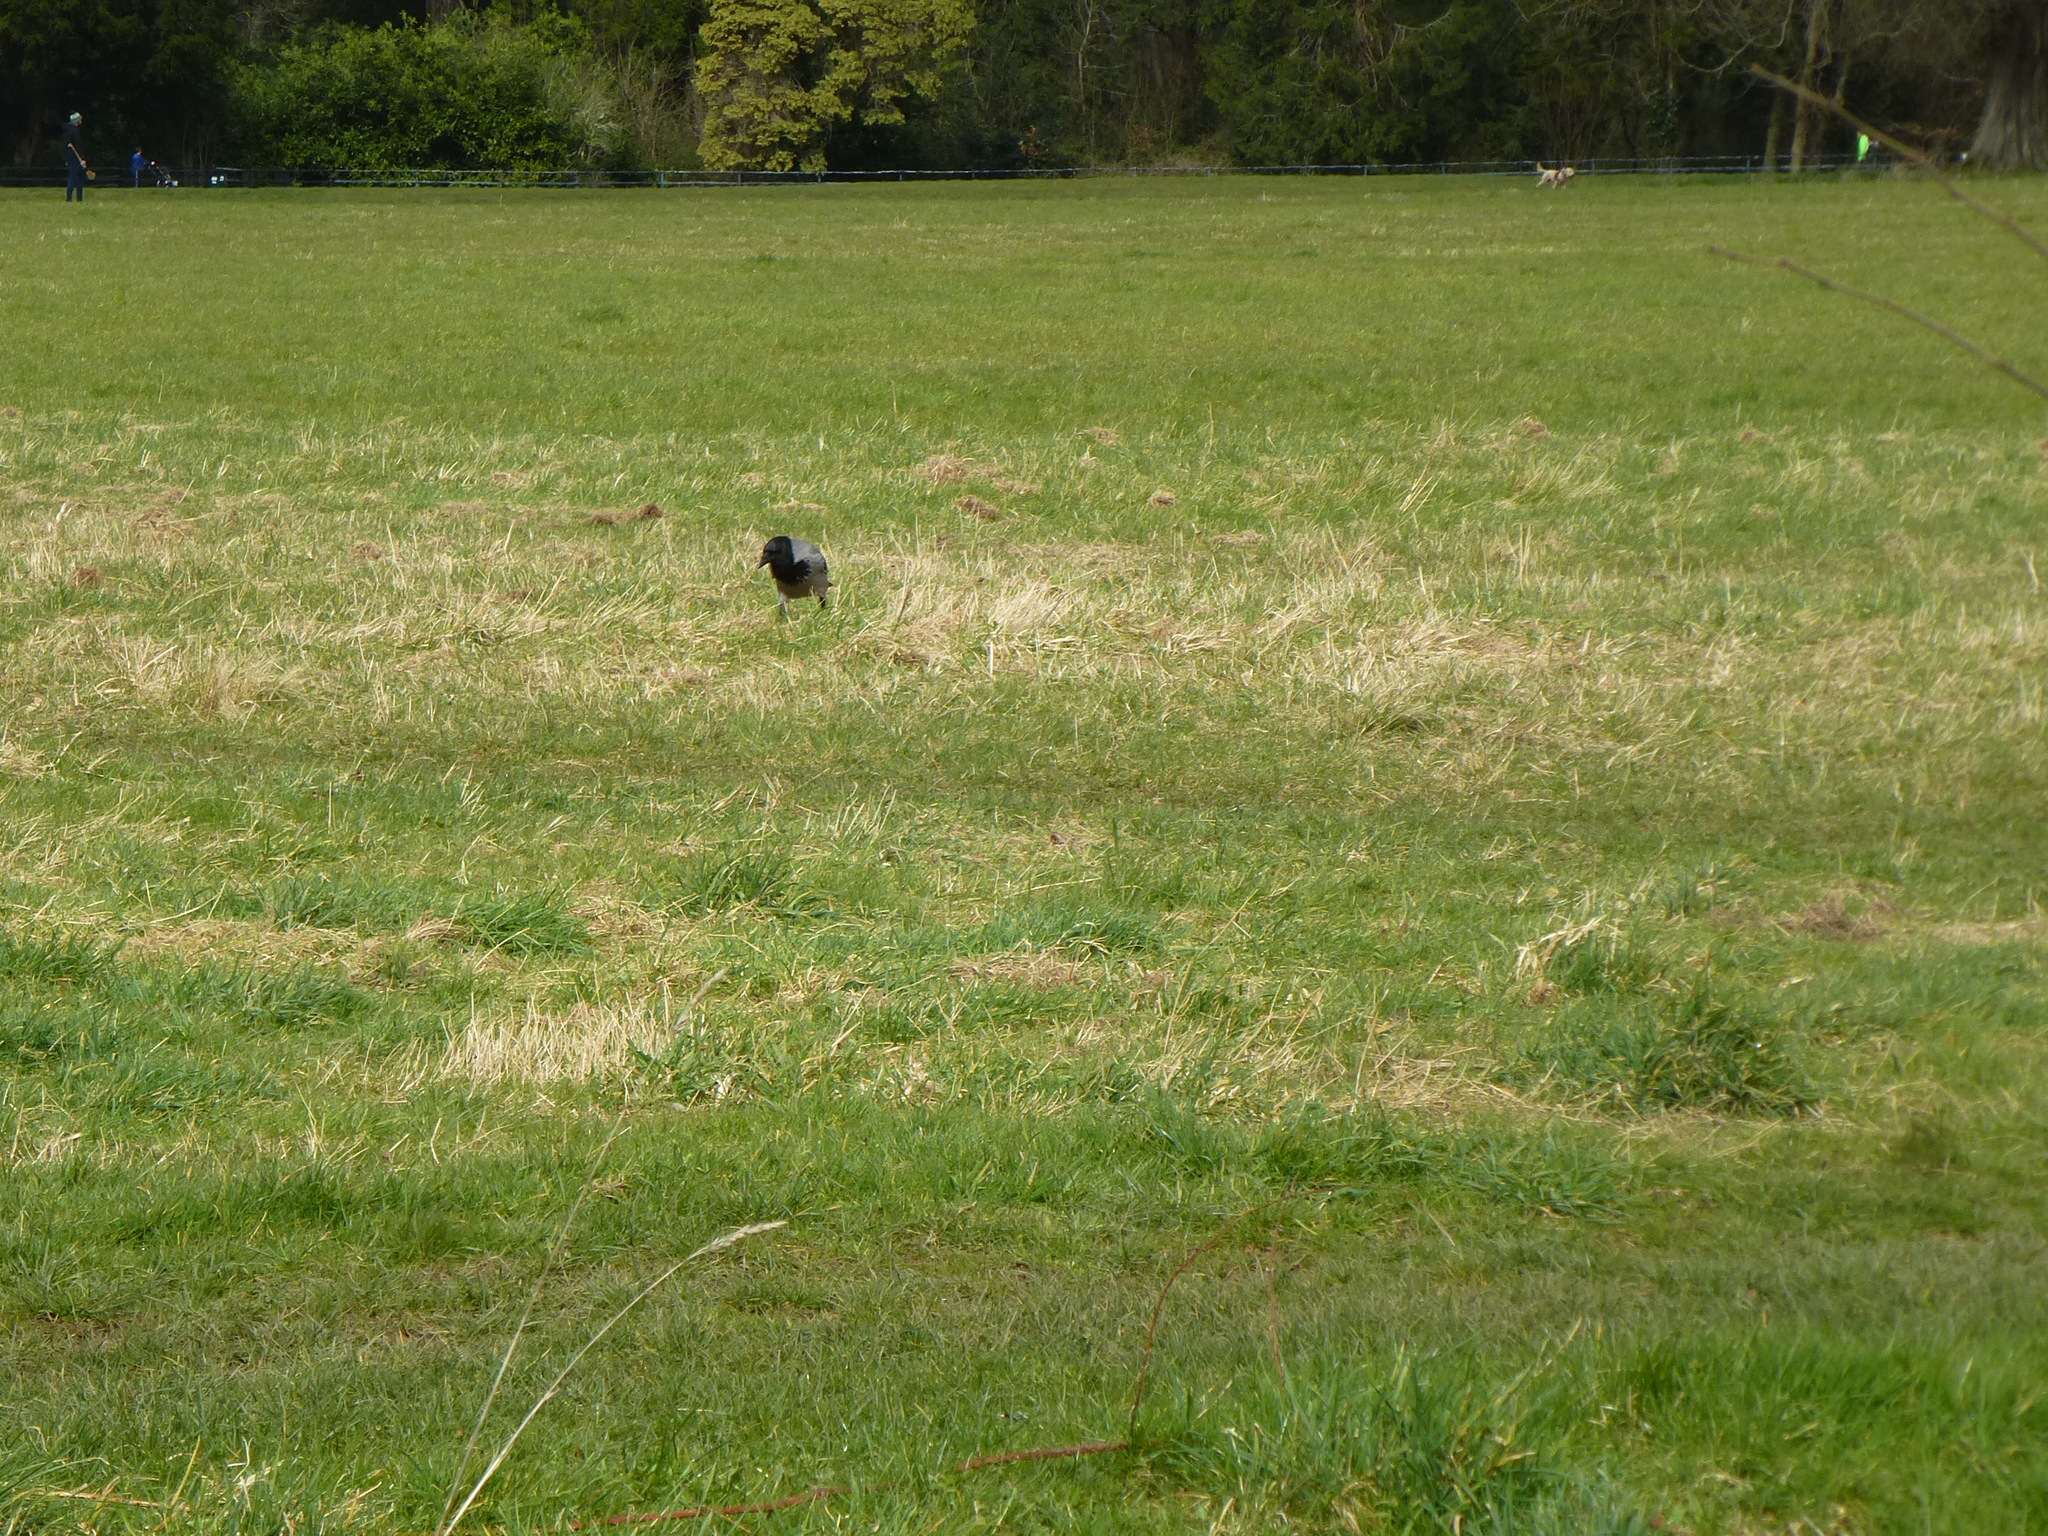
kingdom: Animalia
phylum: Chordata
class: Aves
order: Passeriformes
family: Corvidae
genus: Corvus
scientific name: Corvus cornix
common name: Hooded crow
